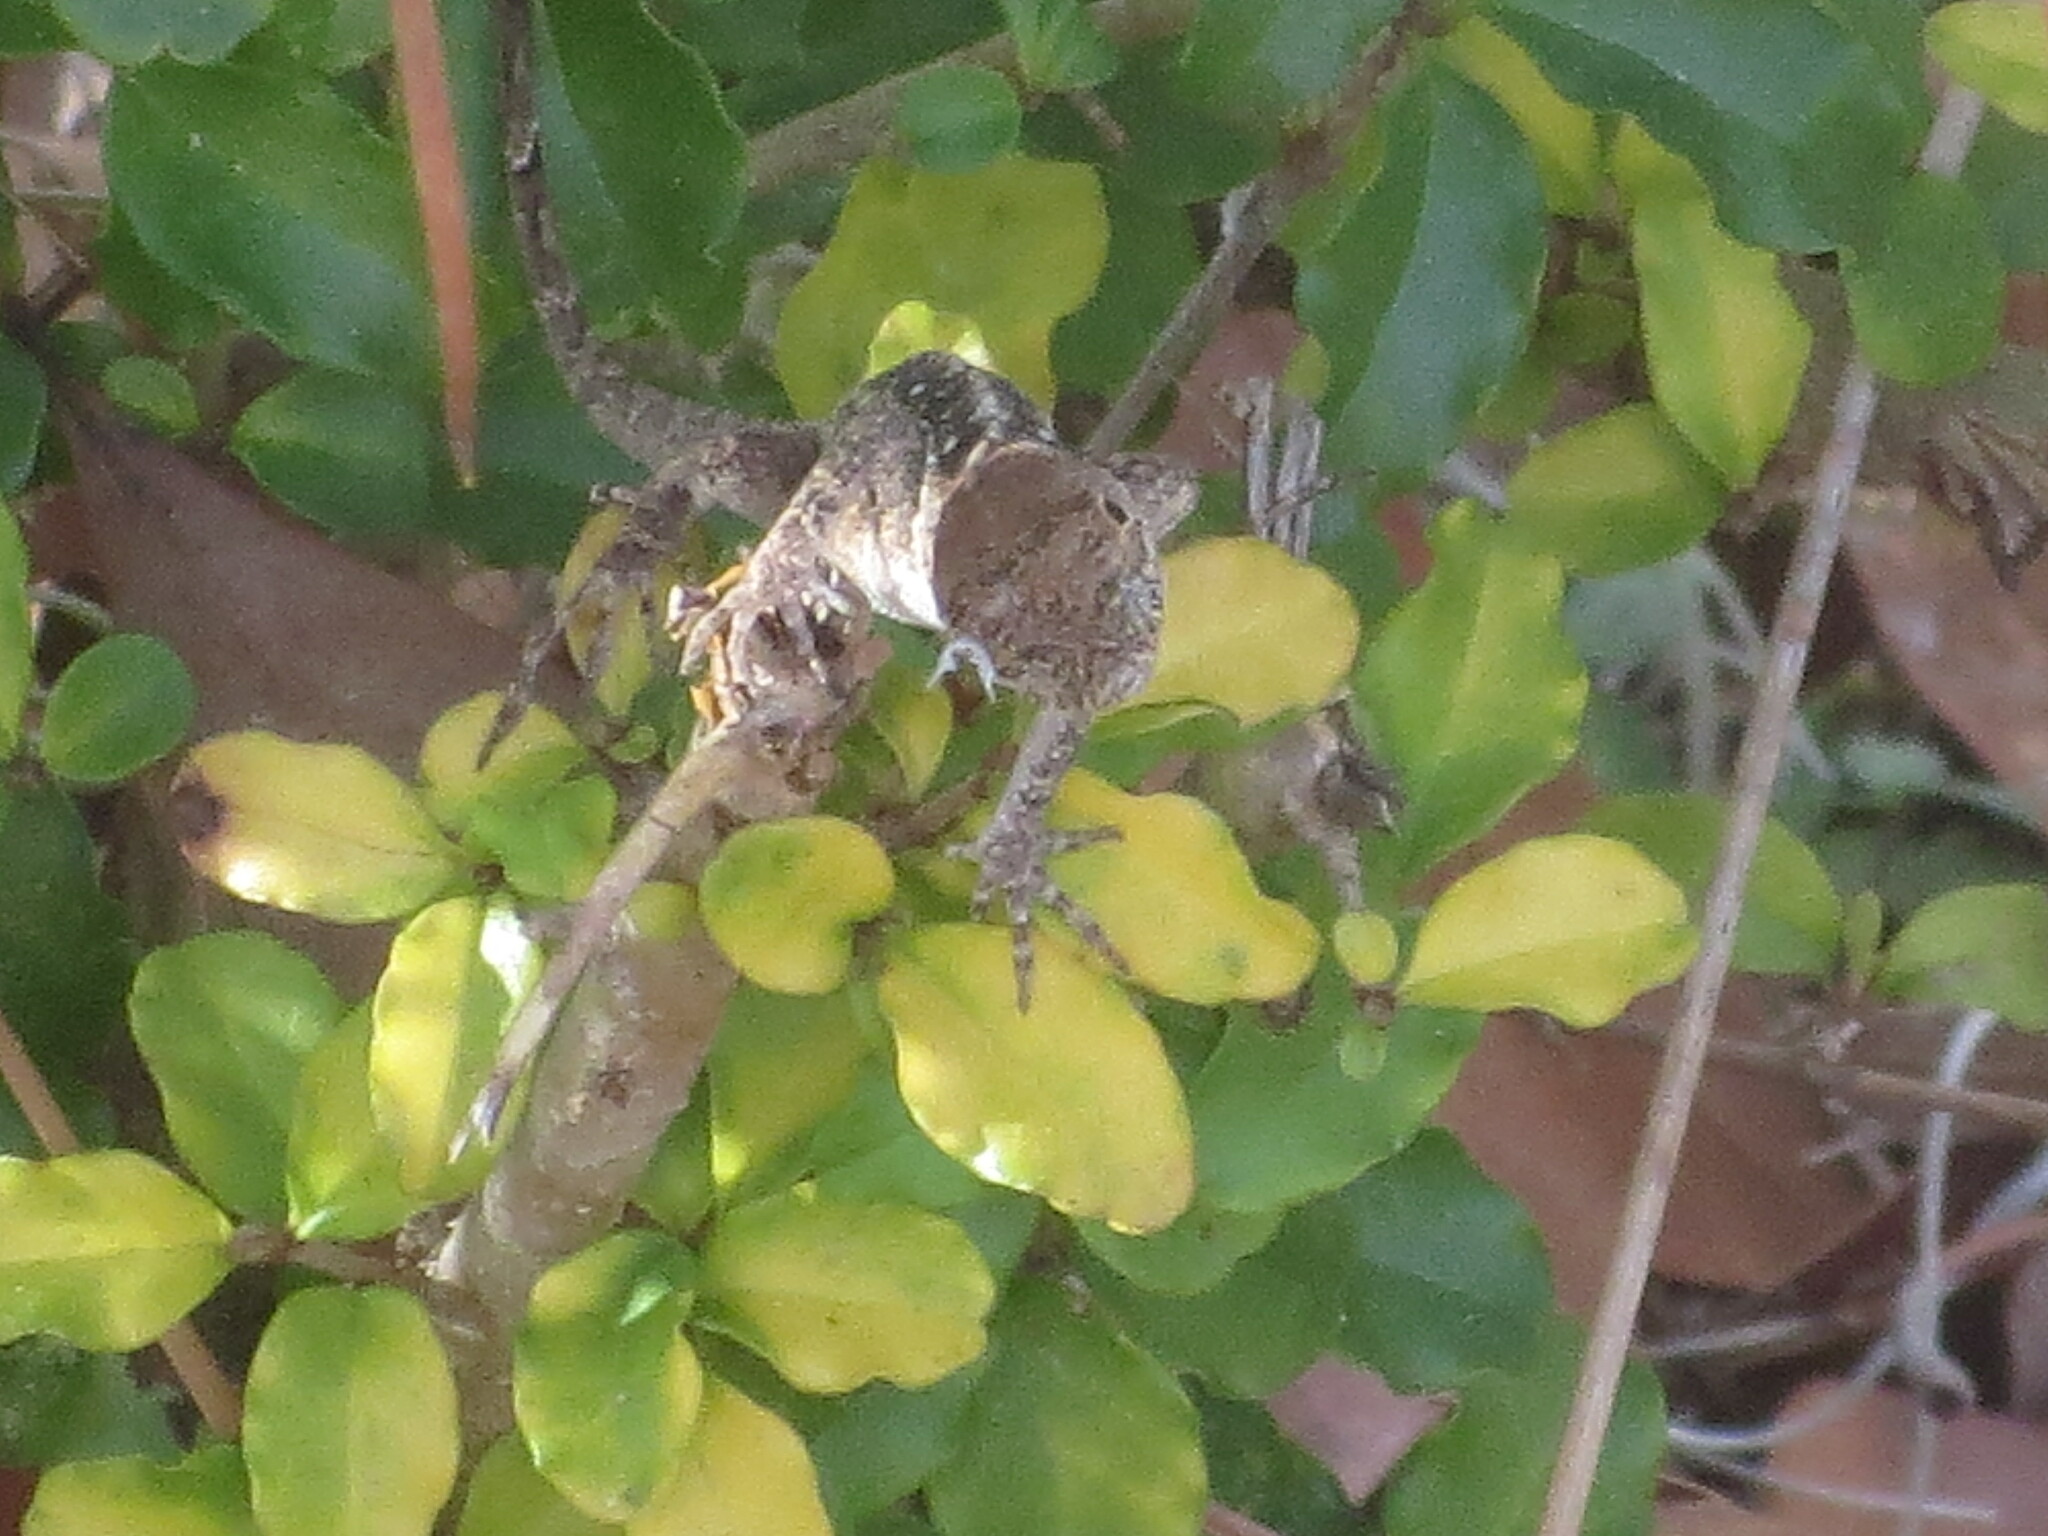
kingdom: Animalia
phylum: Chordata
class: Squamata
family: Dactyloidae
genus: Anolis
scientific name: Anolis sagrei
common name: Brown anole
